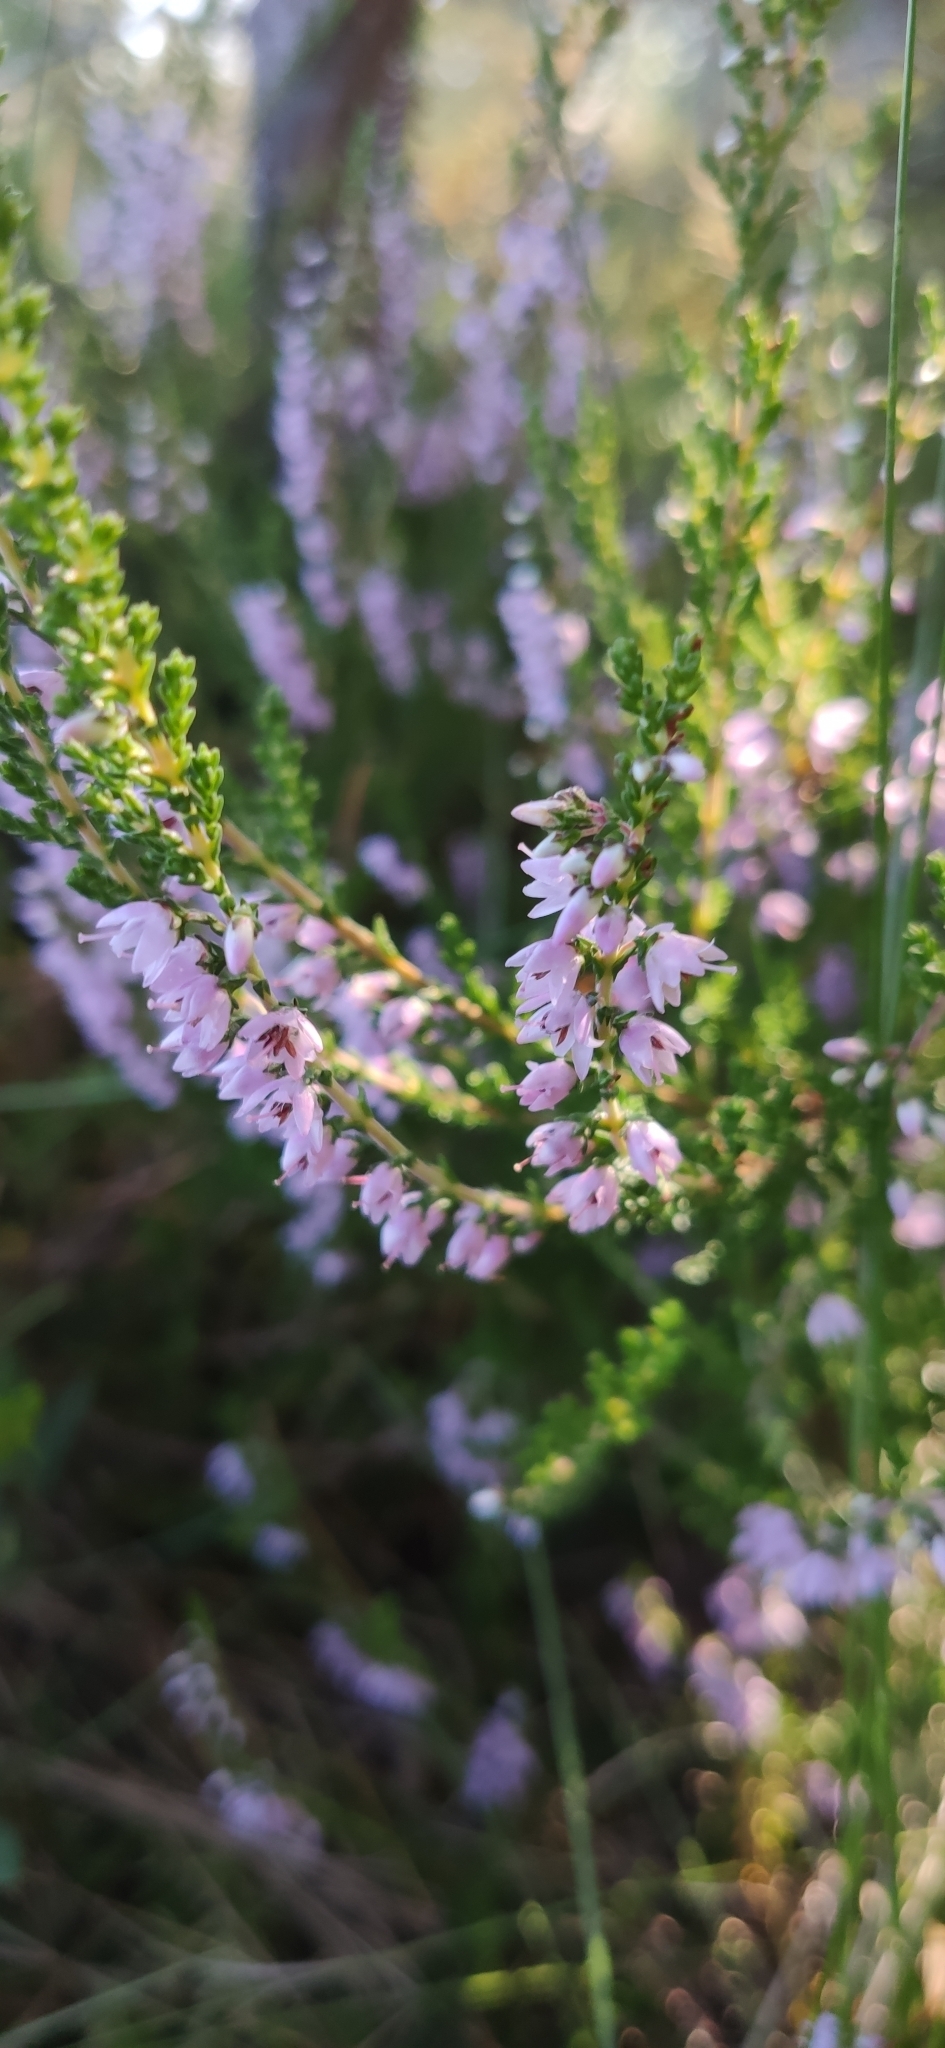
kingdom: Plantae
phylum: Tracheophyta
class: Magnoliopsida
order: Ericales
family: Ericaceae
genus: Calluna
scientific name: Calluna vulgaris
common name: Heather
